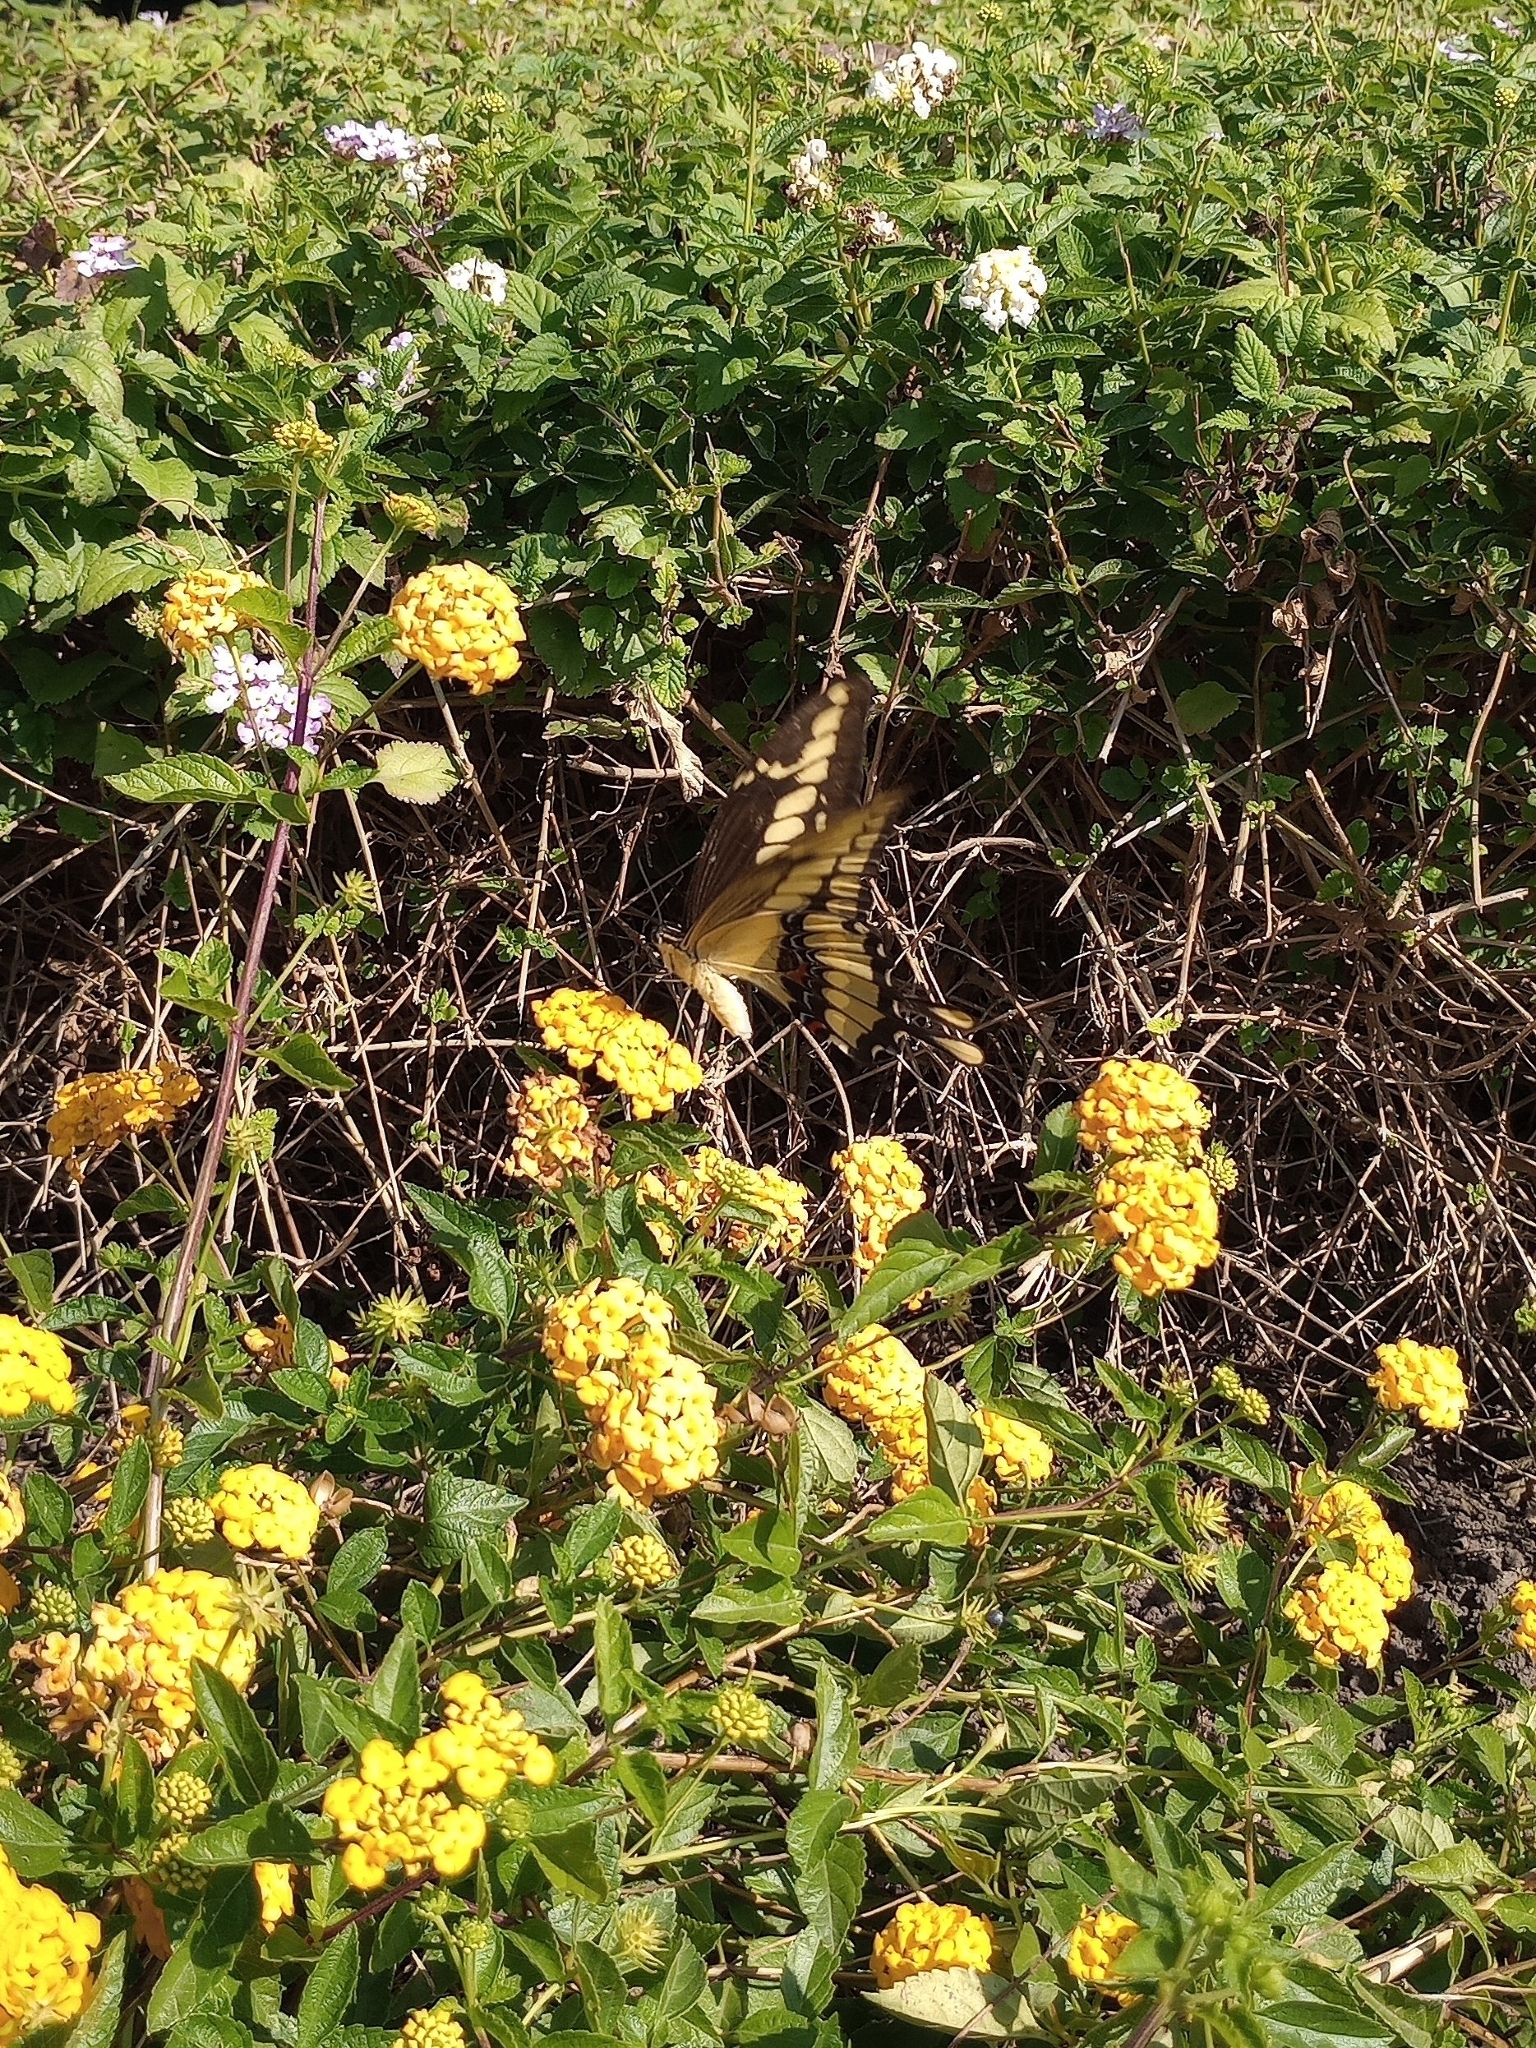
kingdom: Animalia
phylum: Arthropoda
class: Insecta
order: Lepidoptera
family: Papilionidae
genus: Papilio
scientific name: Papilio thoas
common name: King swallowtail
